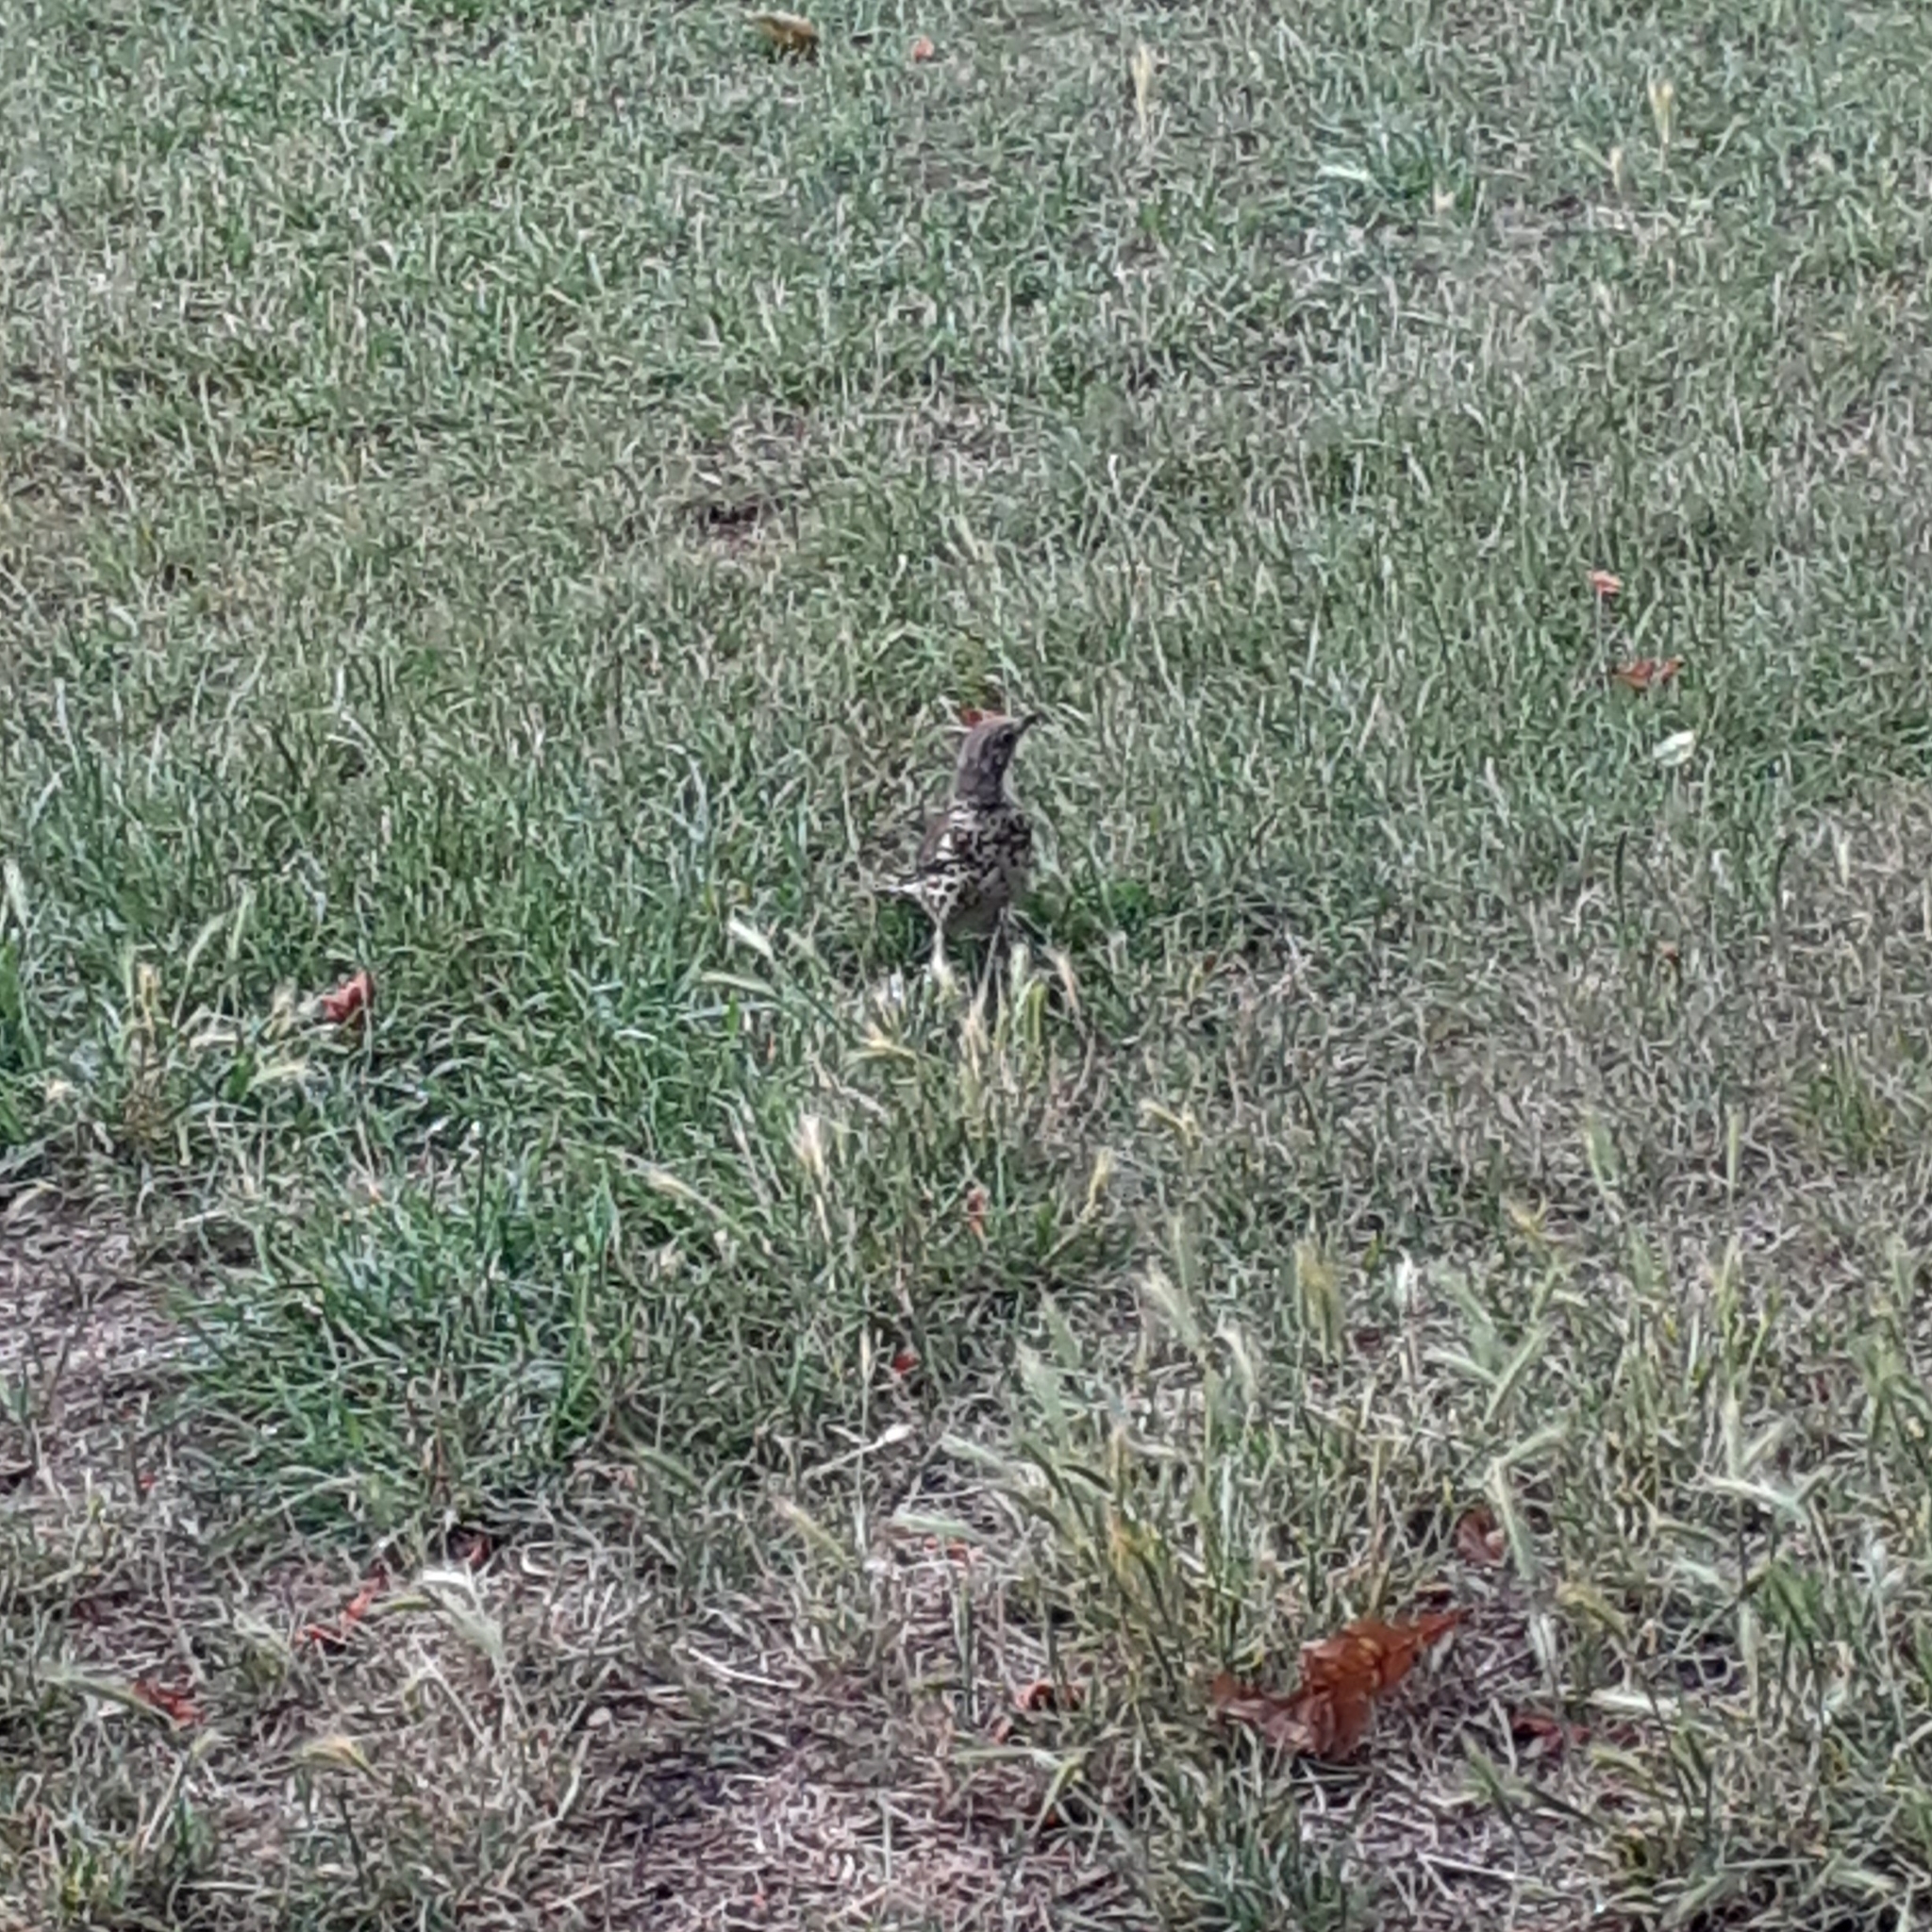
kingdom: Animalia
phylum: Chordata
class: Aves
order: Passeriformes
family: Turdidae
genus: Turdus
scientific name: Turdus viscivorus
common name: Mistle thrush
